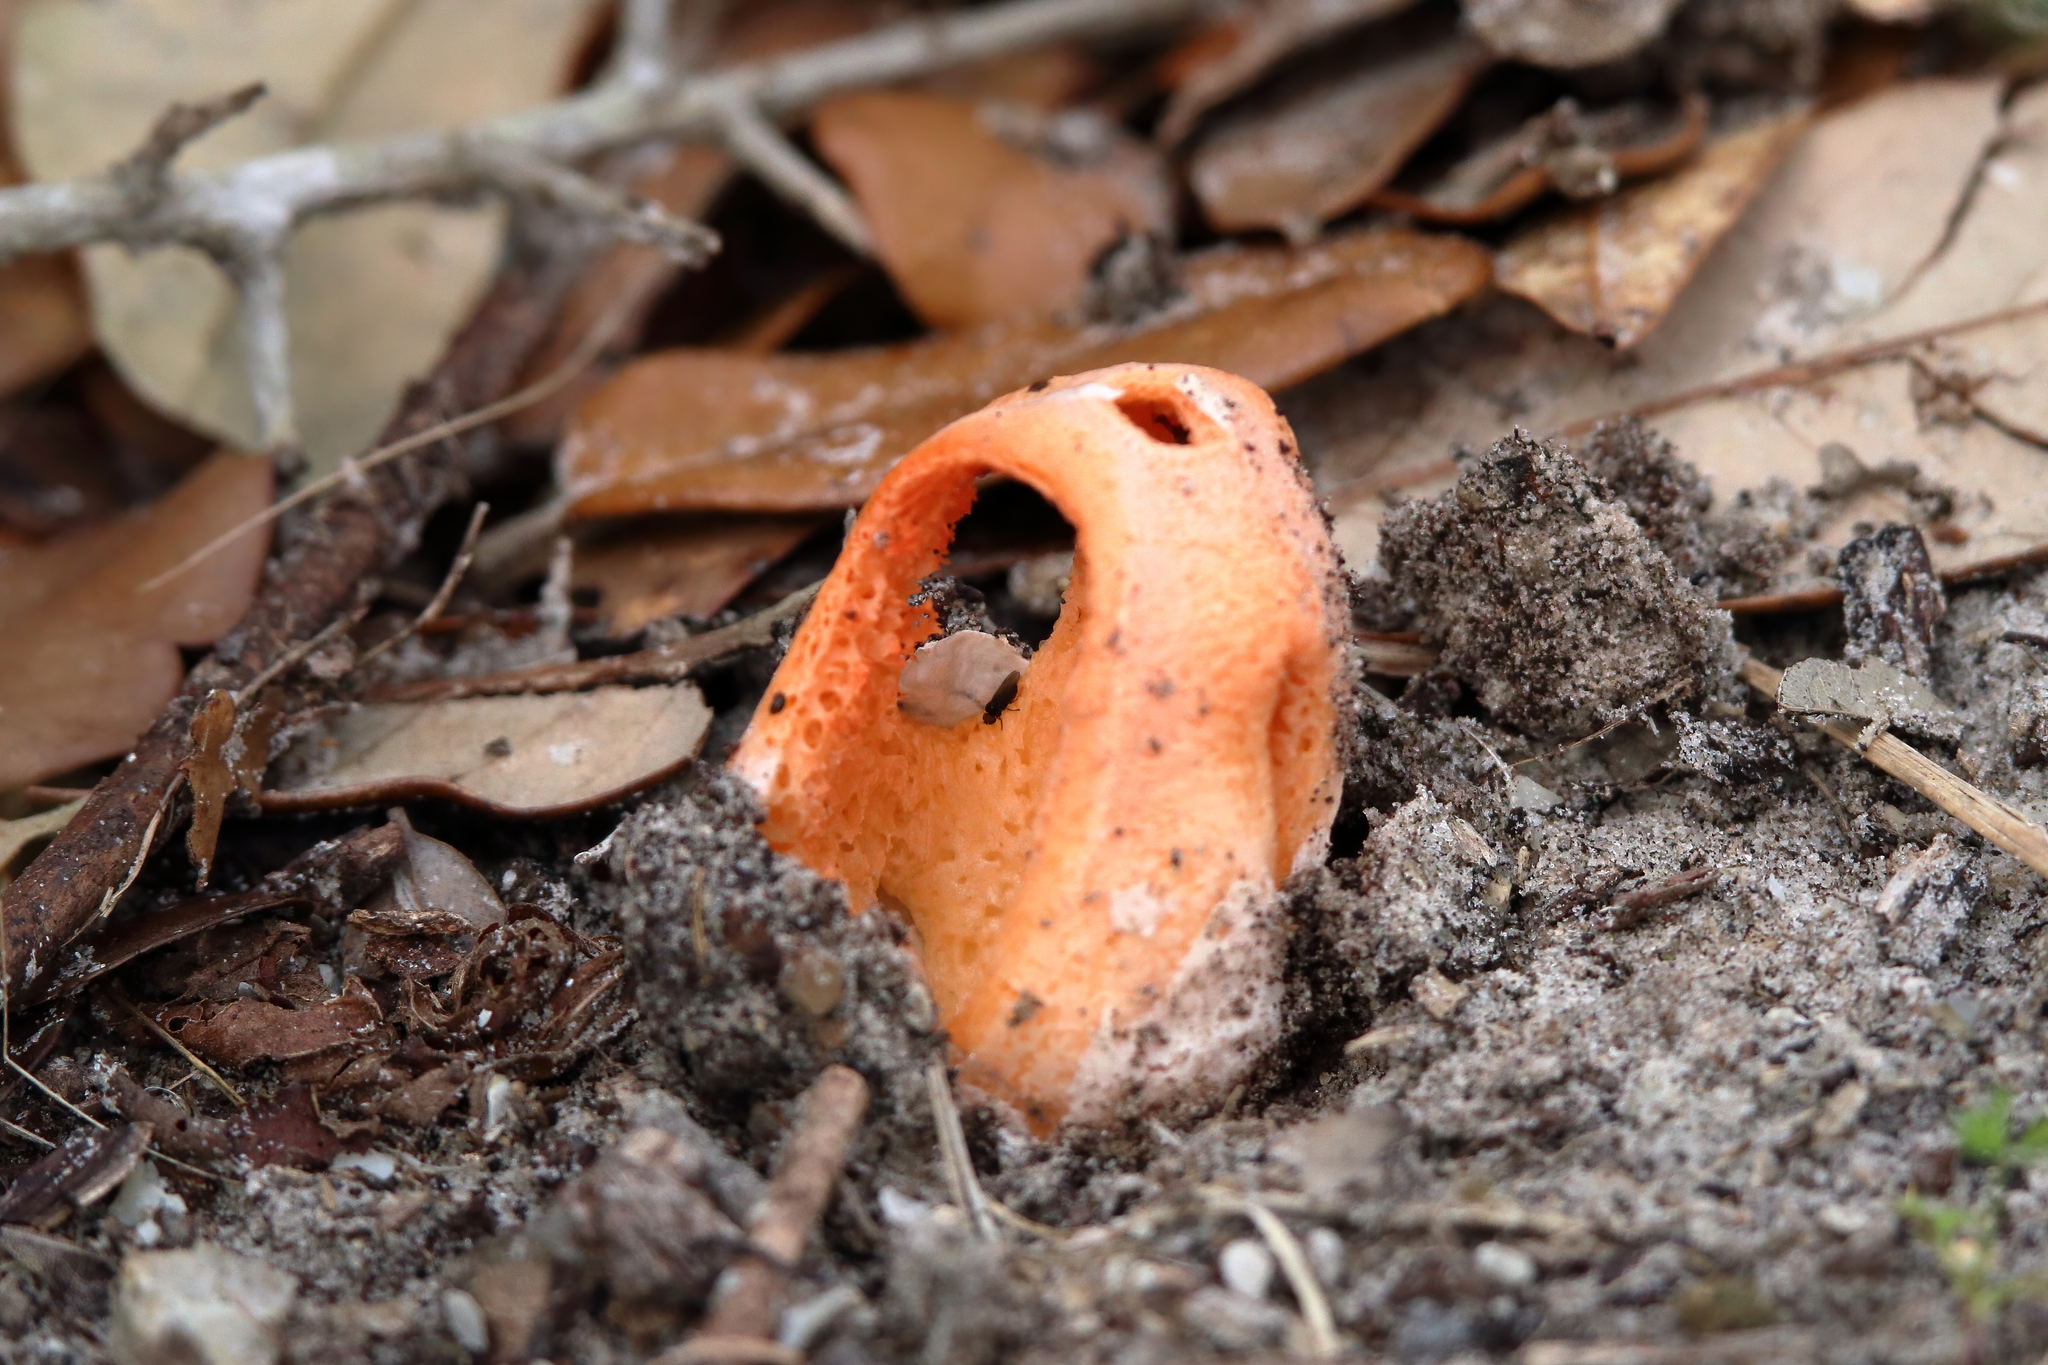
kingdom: Fungi
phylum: Basidiomycota
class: Agaricomycetes
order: Phallales
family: Phallaceae
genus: Clathrus
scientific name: Clathrus columnatus
